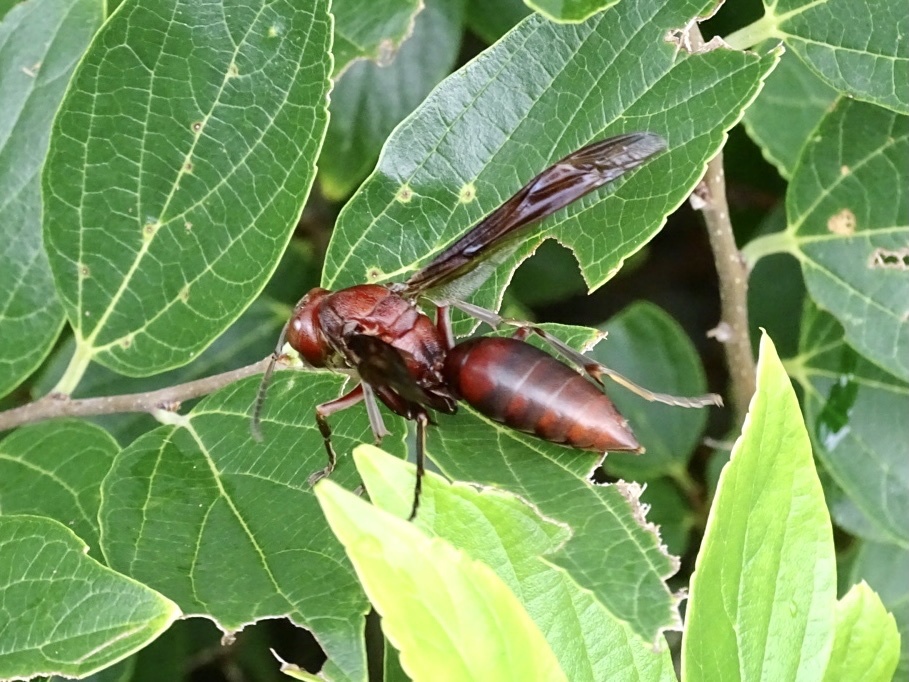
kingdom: Animalia
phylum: Arthropoda
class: Insecta
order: Hymenoptera
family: Eumenidae
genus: Polistes
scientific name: Polistes gigas
